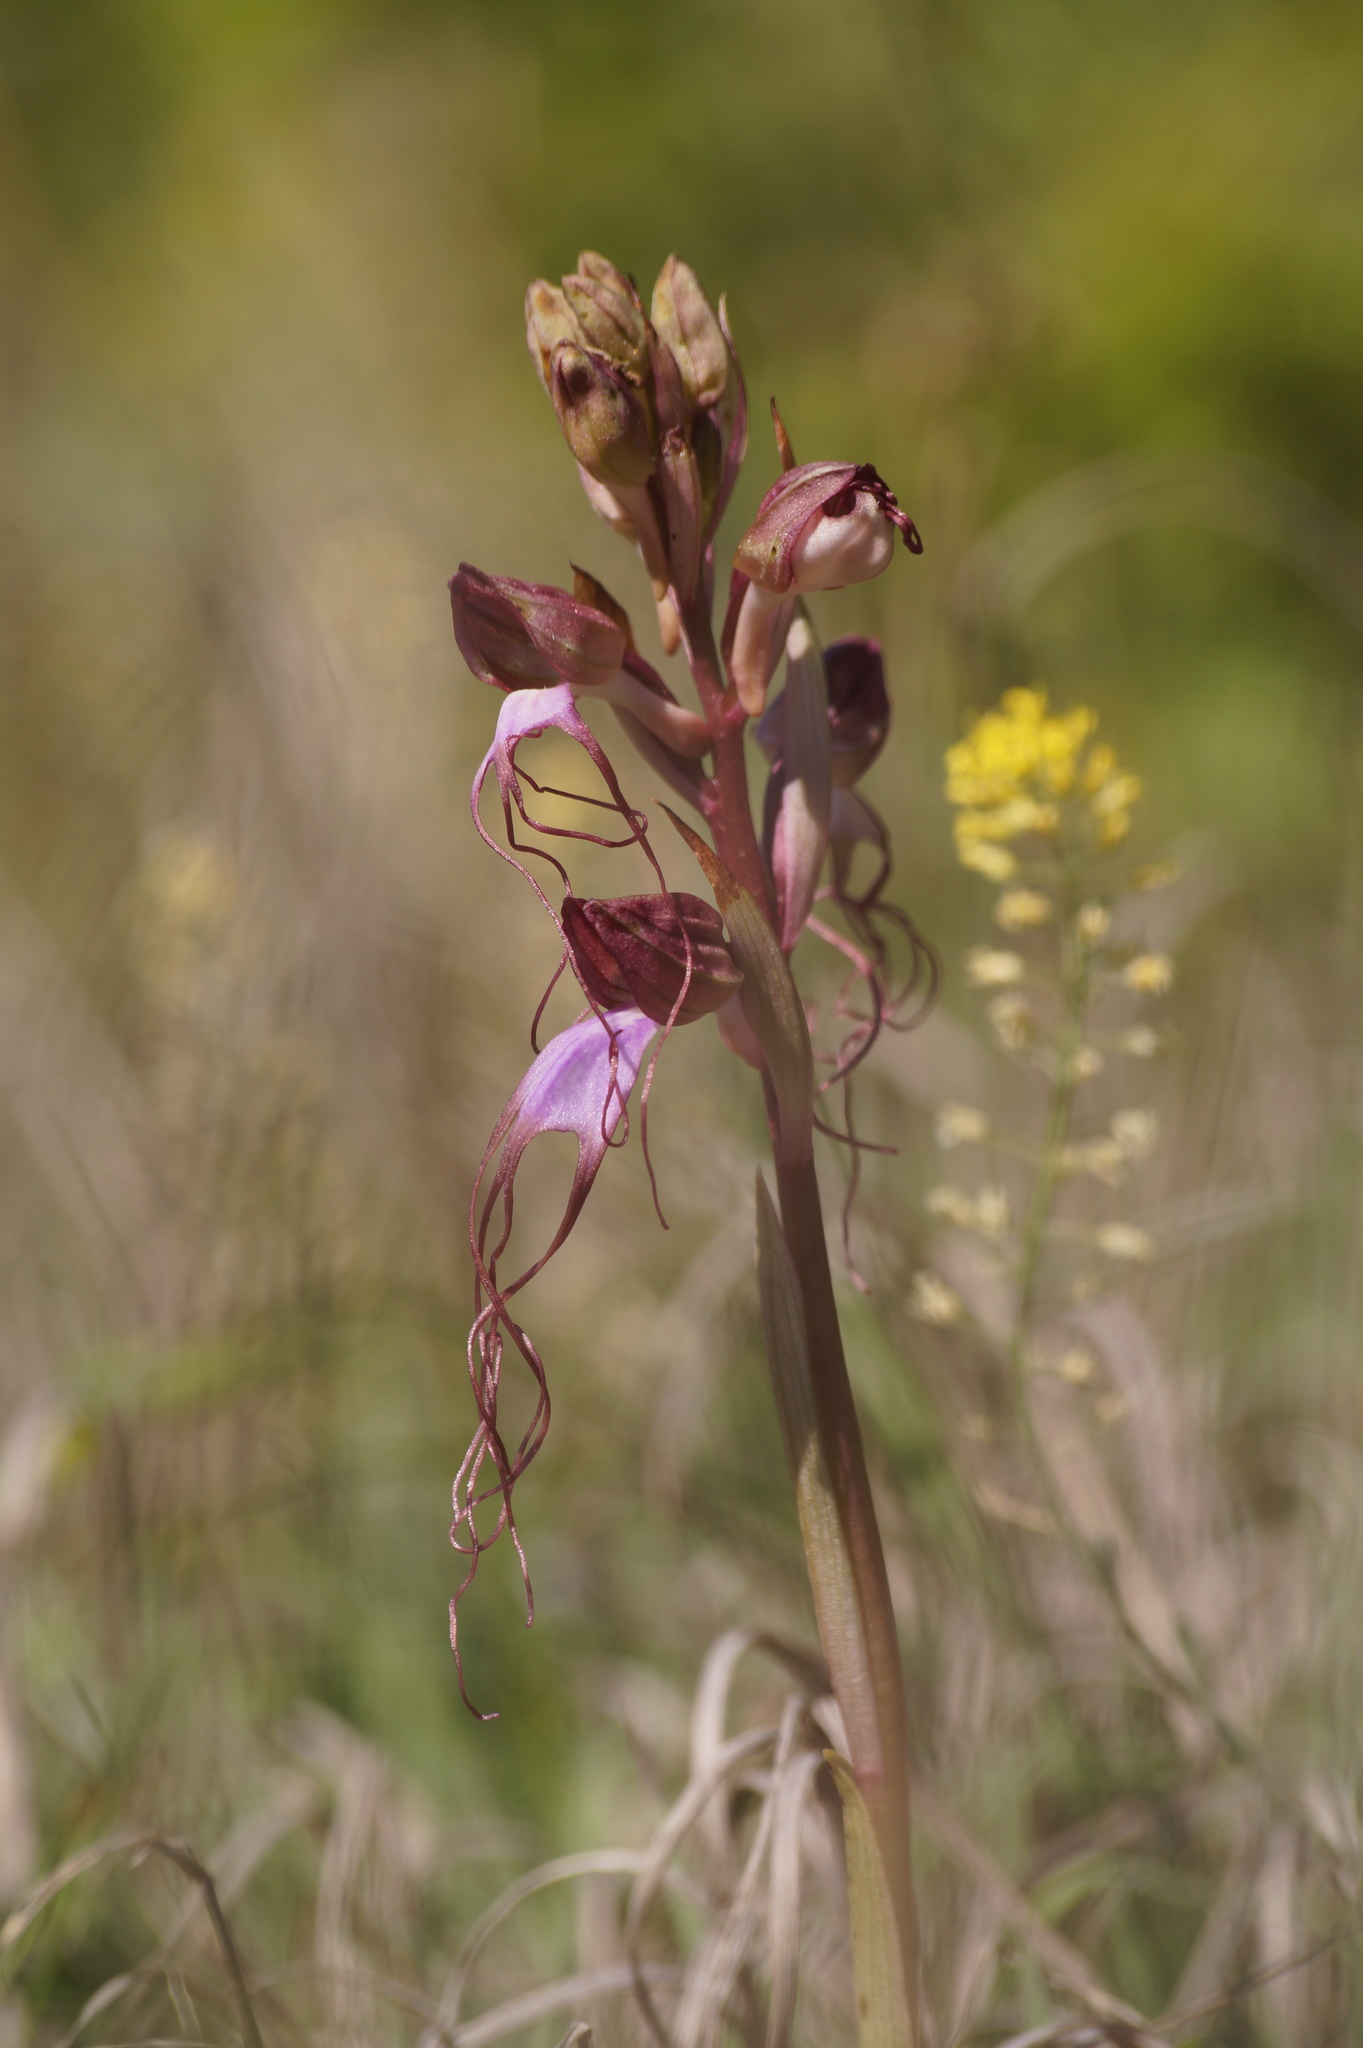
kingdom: Plantae
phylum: Tracheophyta
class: Liliopsida
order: Asparagales
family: Orchidaceae
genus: Himantoglossum
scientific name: Himantoglossum comperianum
